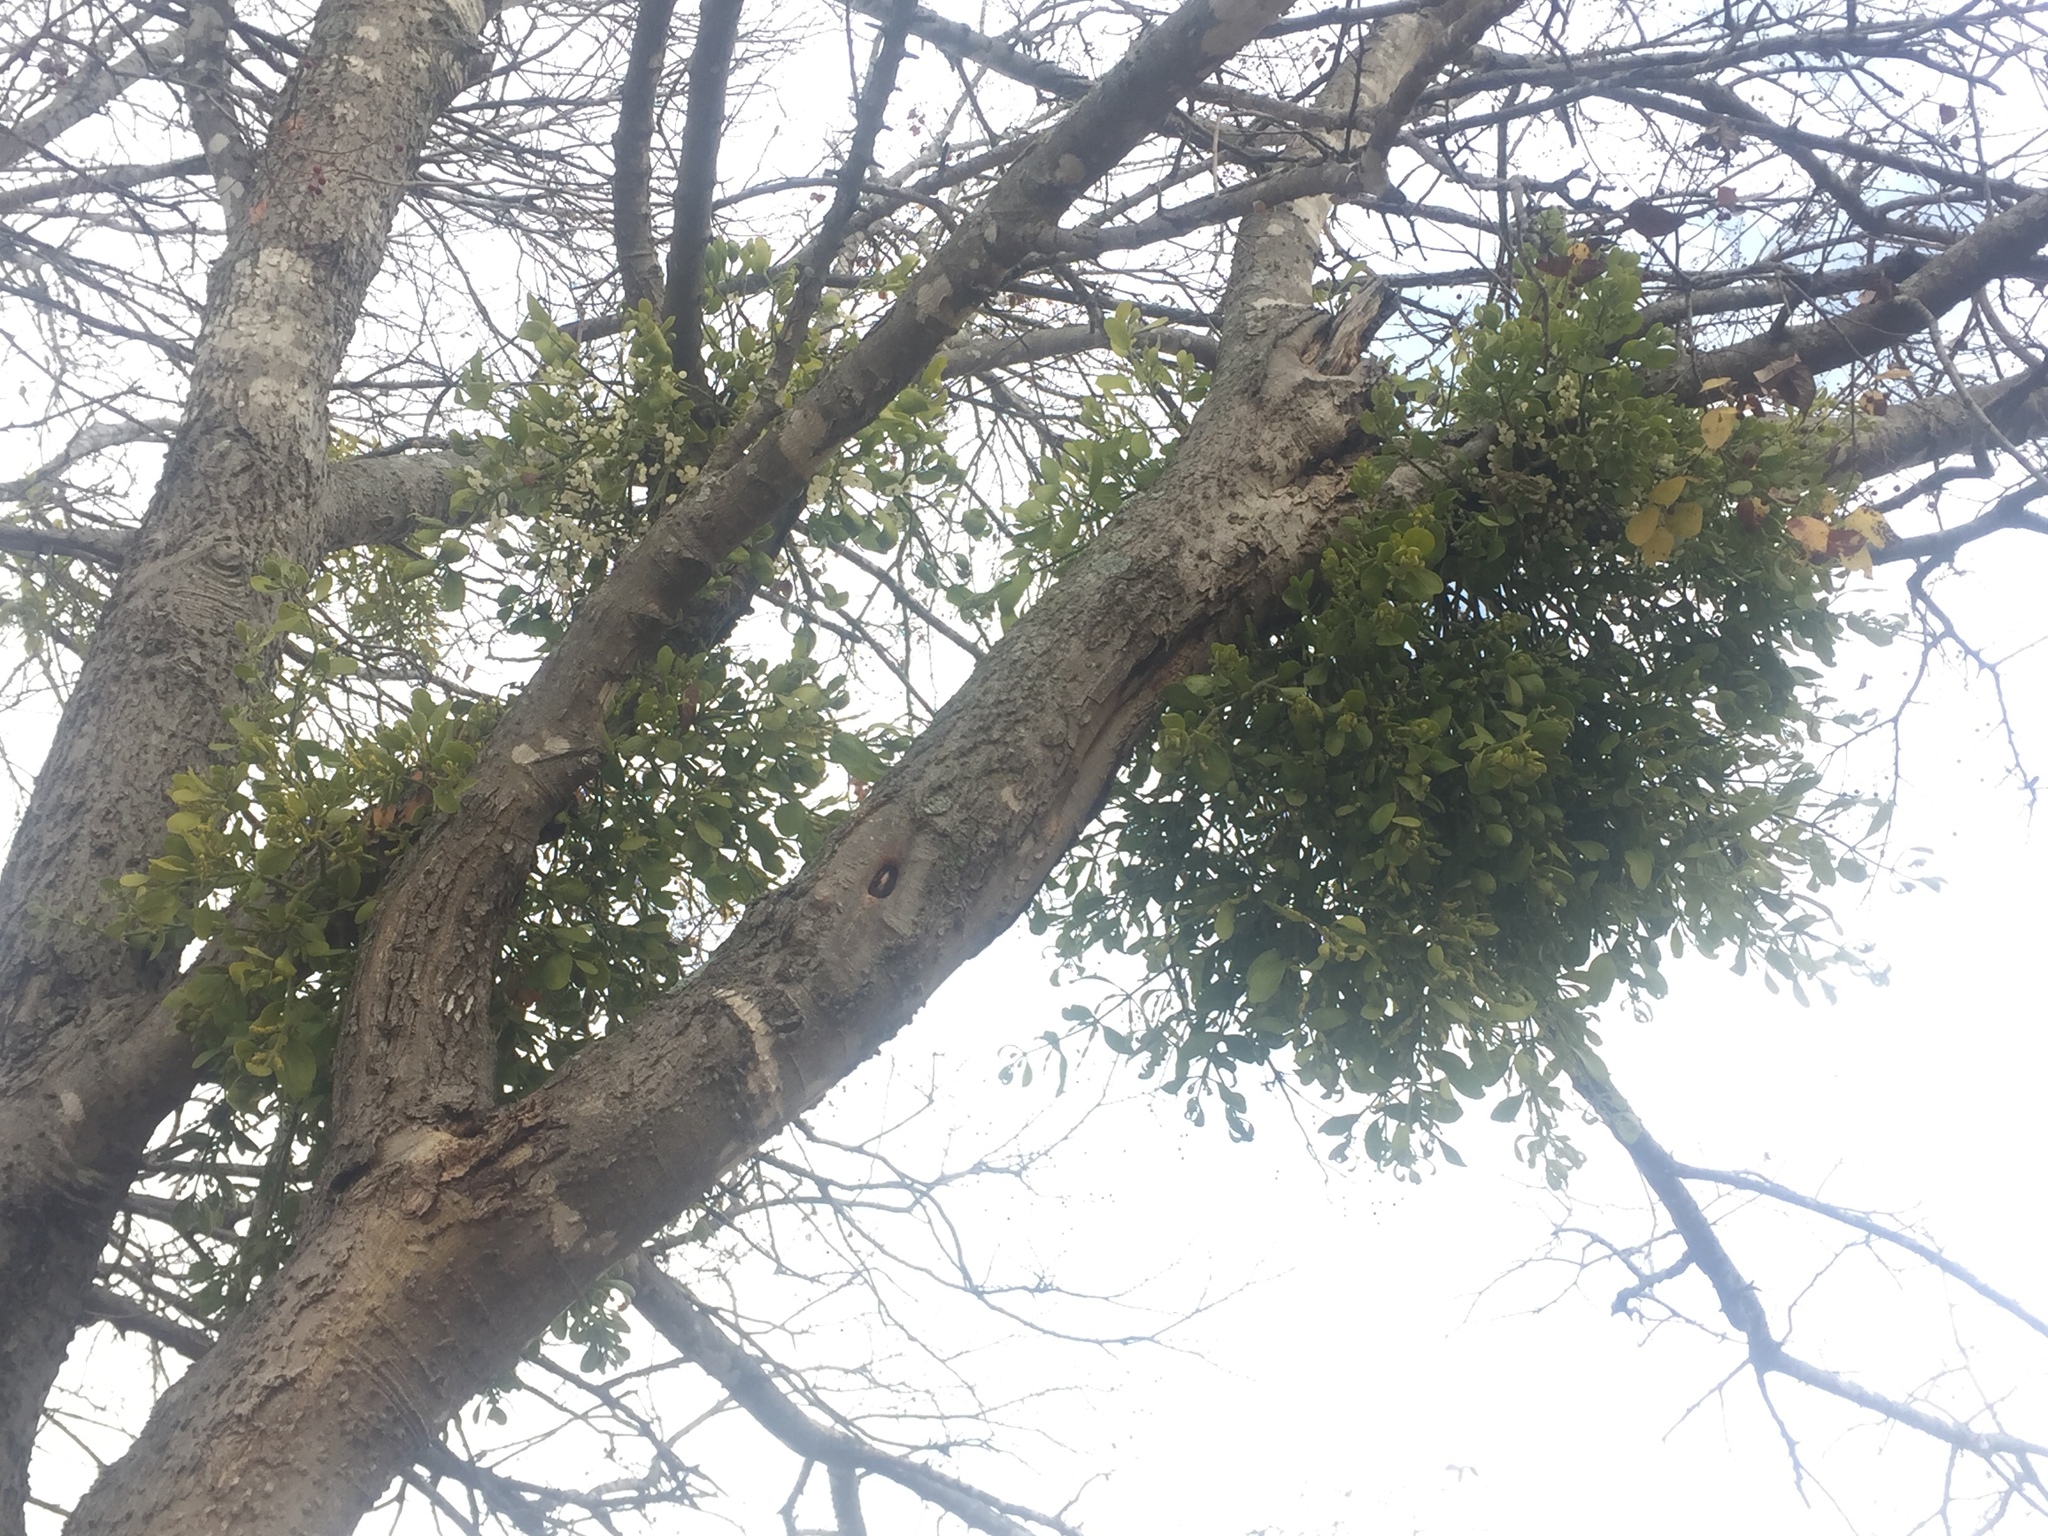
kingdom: Plantae
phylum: Tracheophyta
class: Magnoliopsida
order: Santalales
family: Viscaceae
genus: Phoradendron
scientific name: Phoradendron leucarpum
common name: Pacific mistletoe
